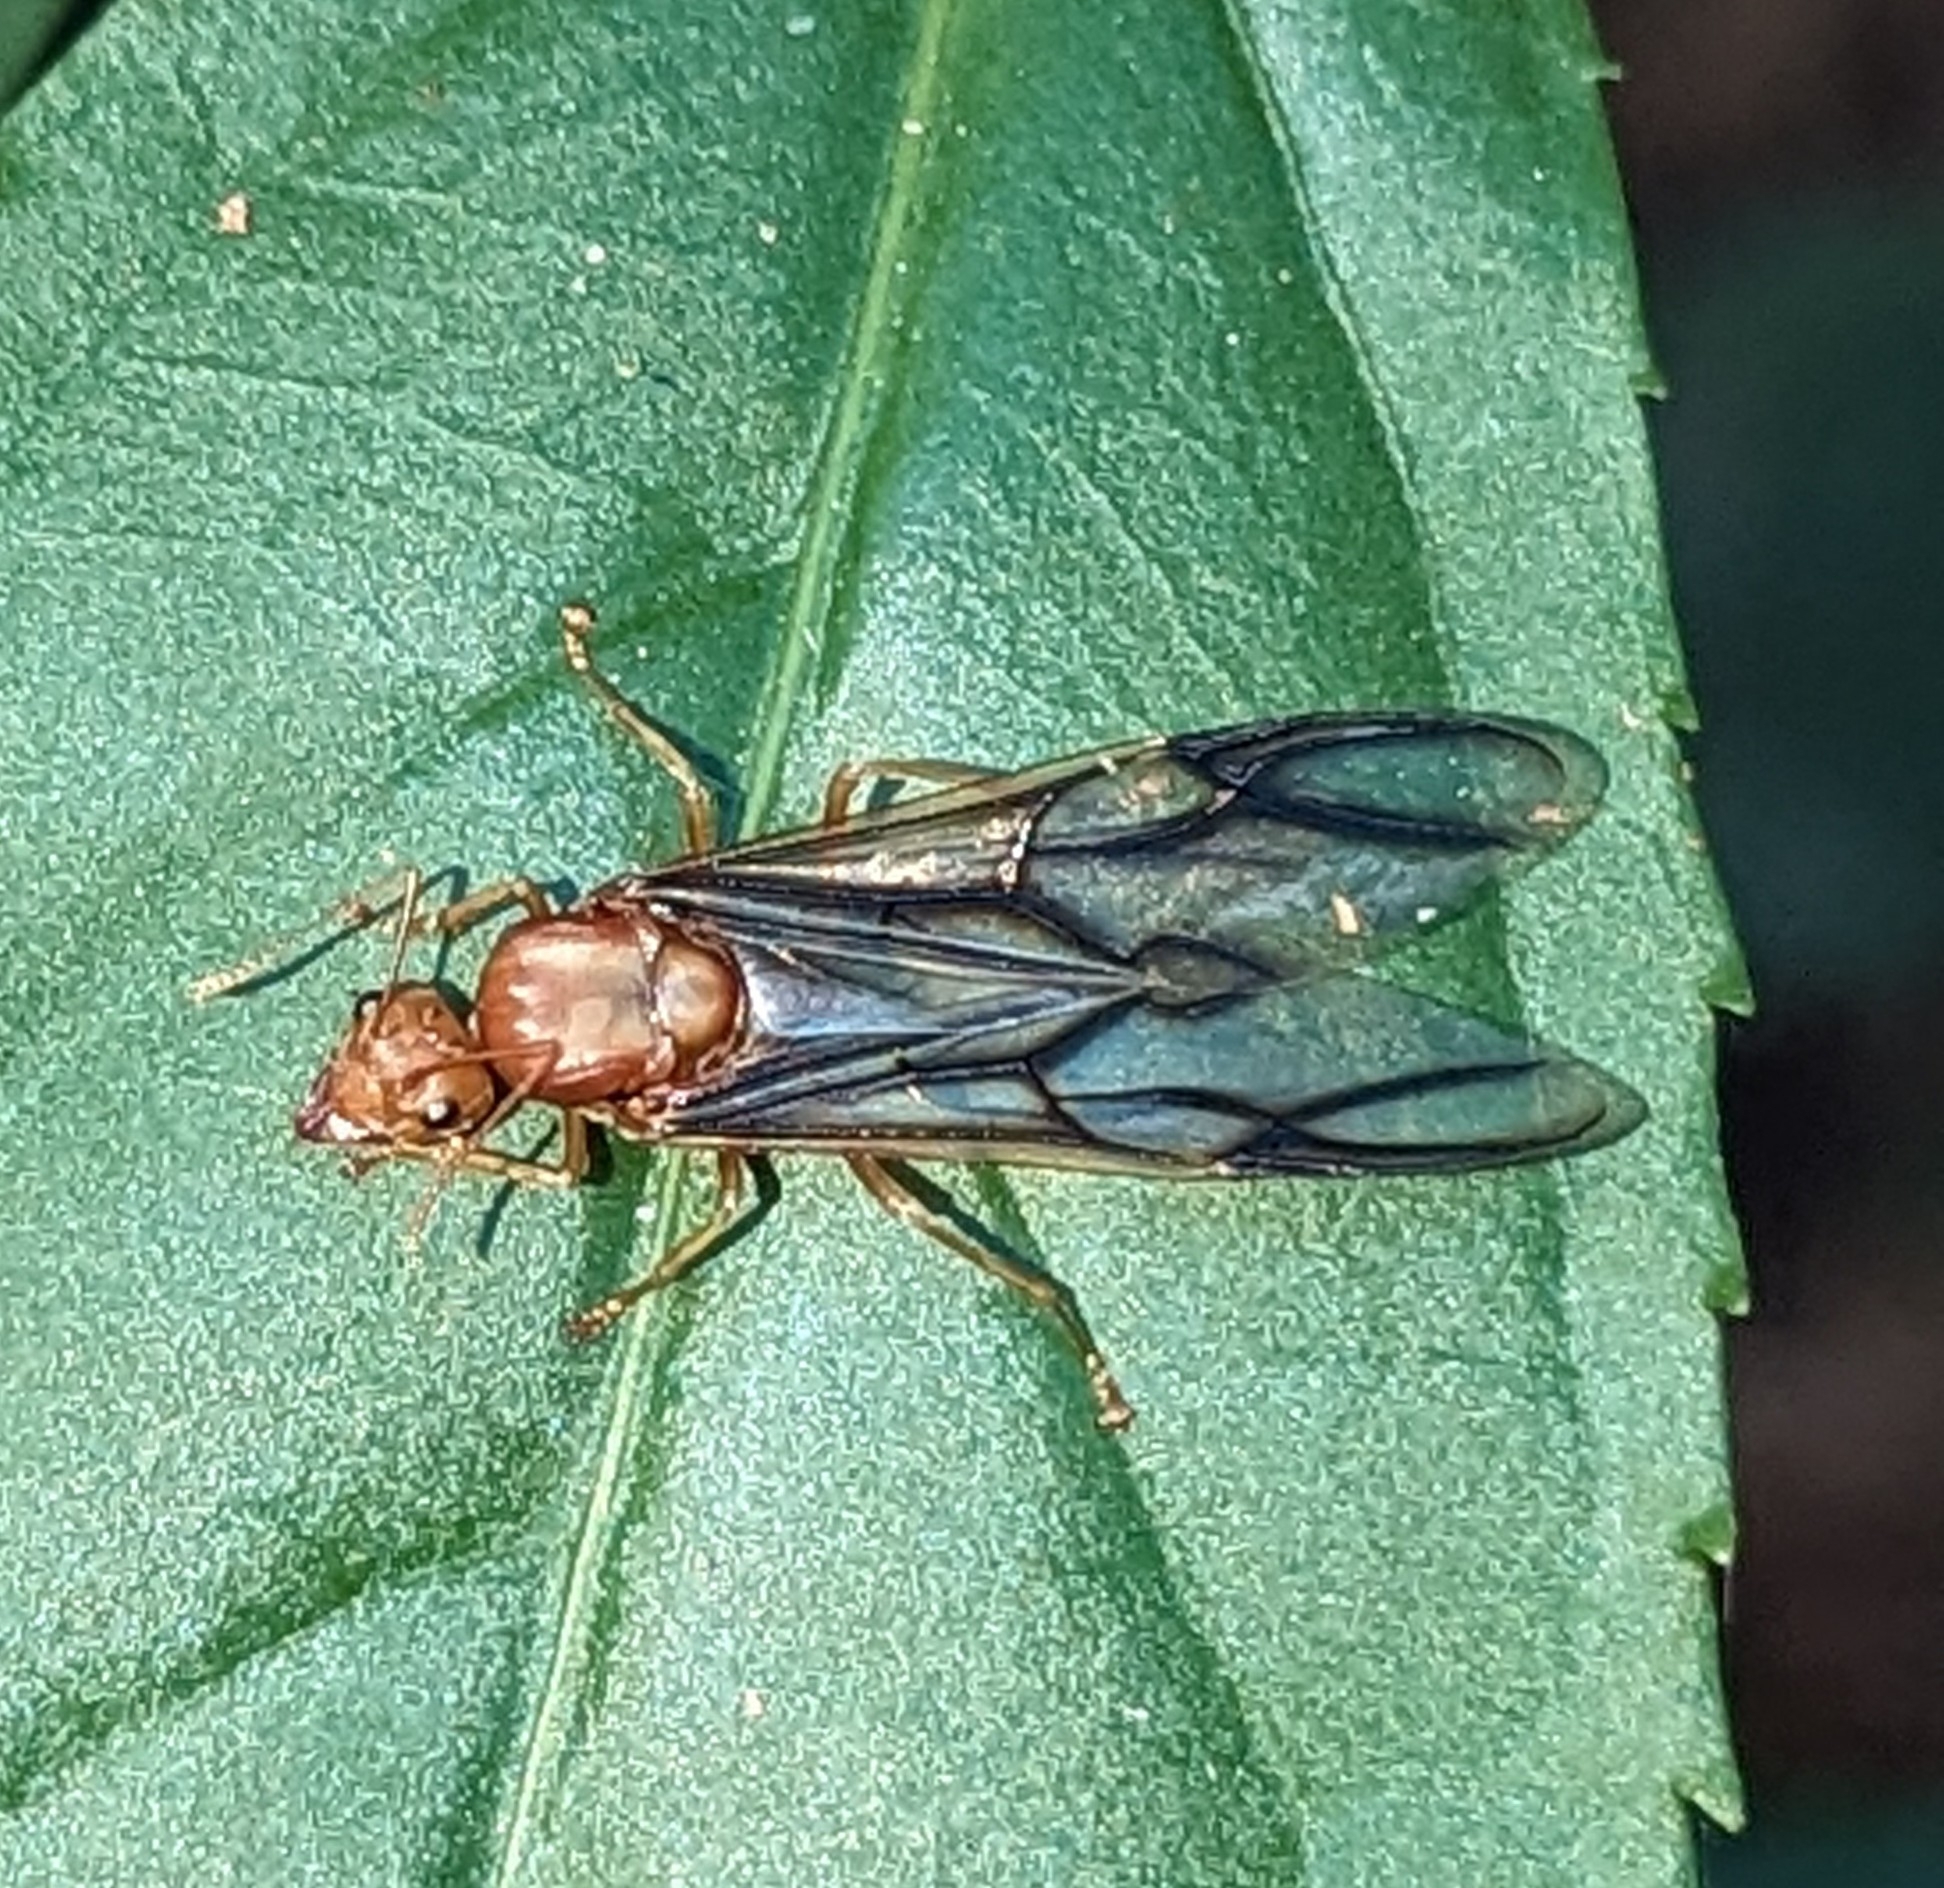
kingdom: Animalia
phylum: Arthropoda
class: Insecta
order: Hymenoptera
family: Formicidae
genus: Oecophylla
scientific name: Oecophylla longinoda
